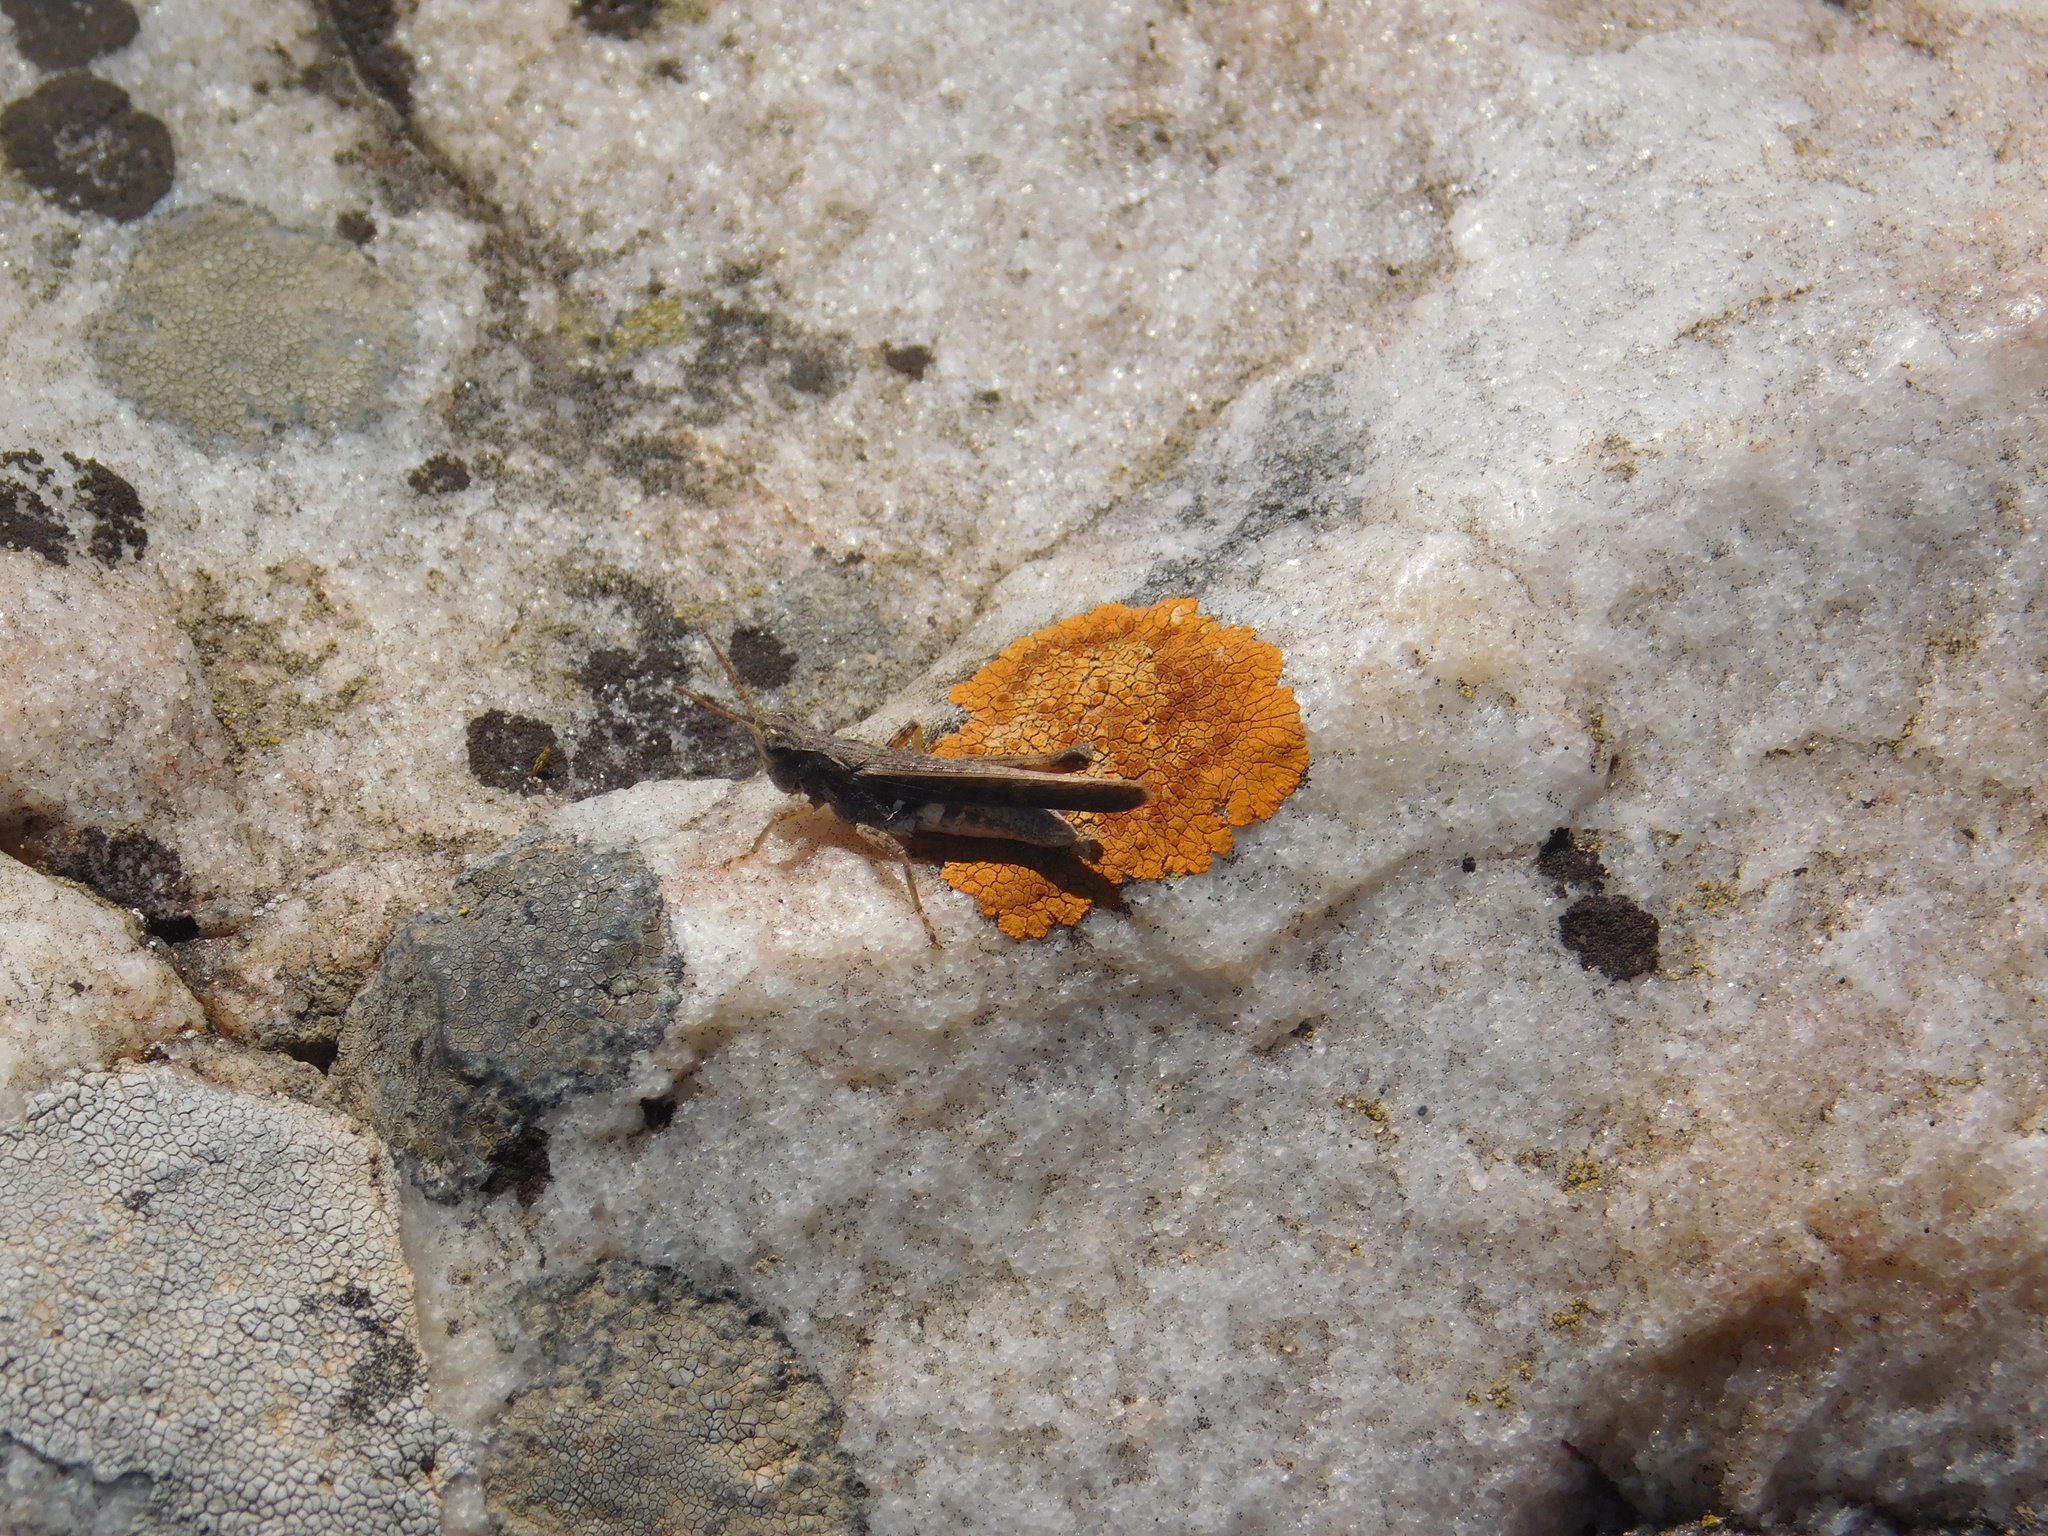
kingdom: Animalia
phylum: Arthropoda
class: Insecta
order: Orthoptera
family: Acrididae
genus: Orphulella
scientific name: Orphulella punctata
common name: Slant-faced grasshopper
